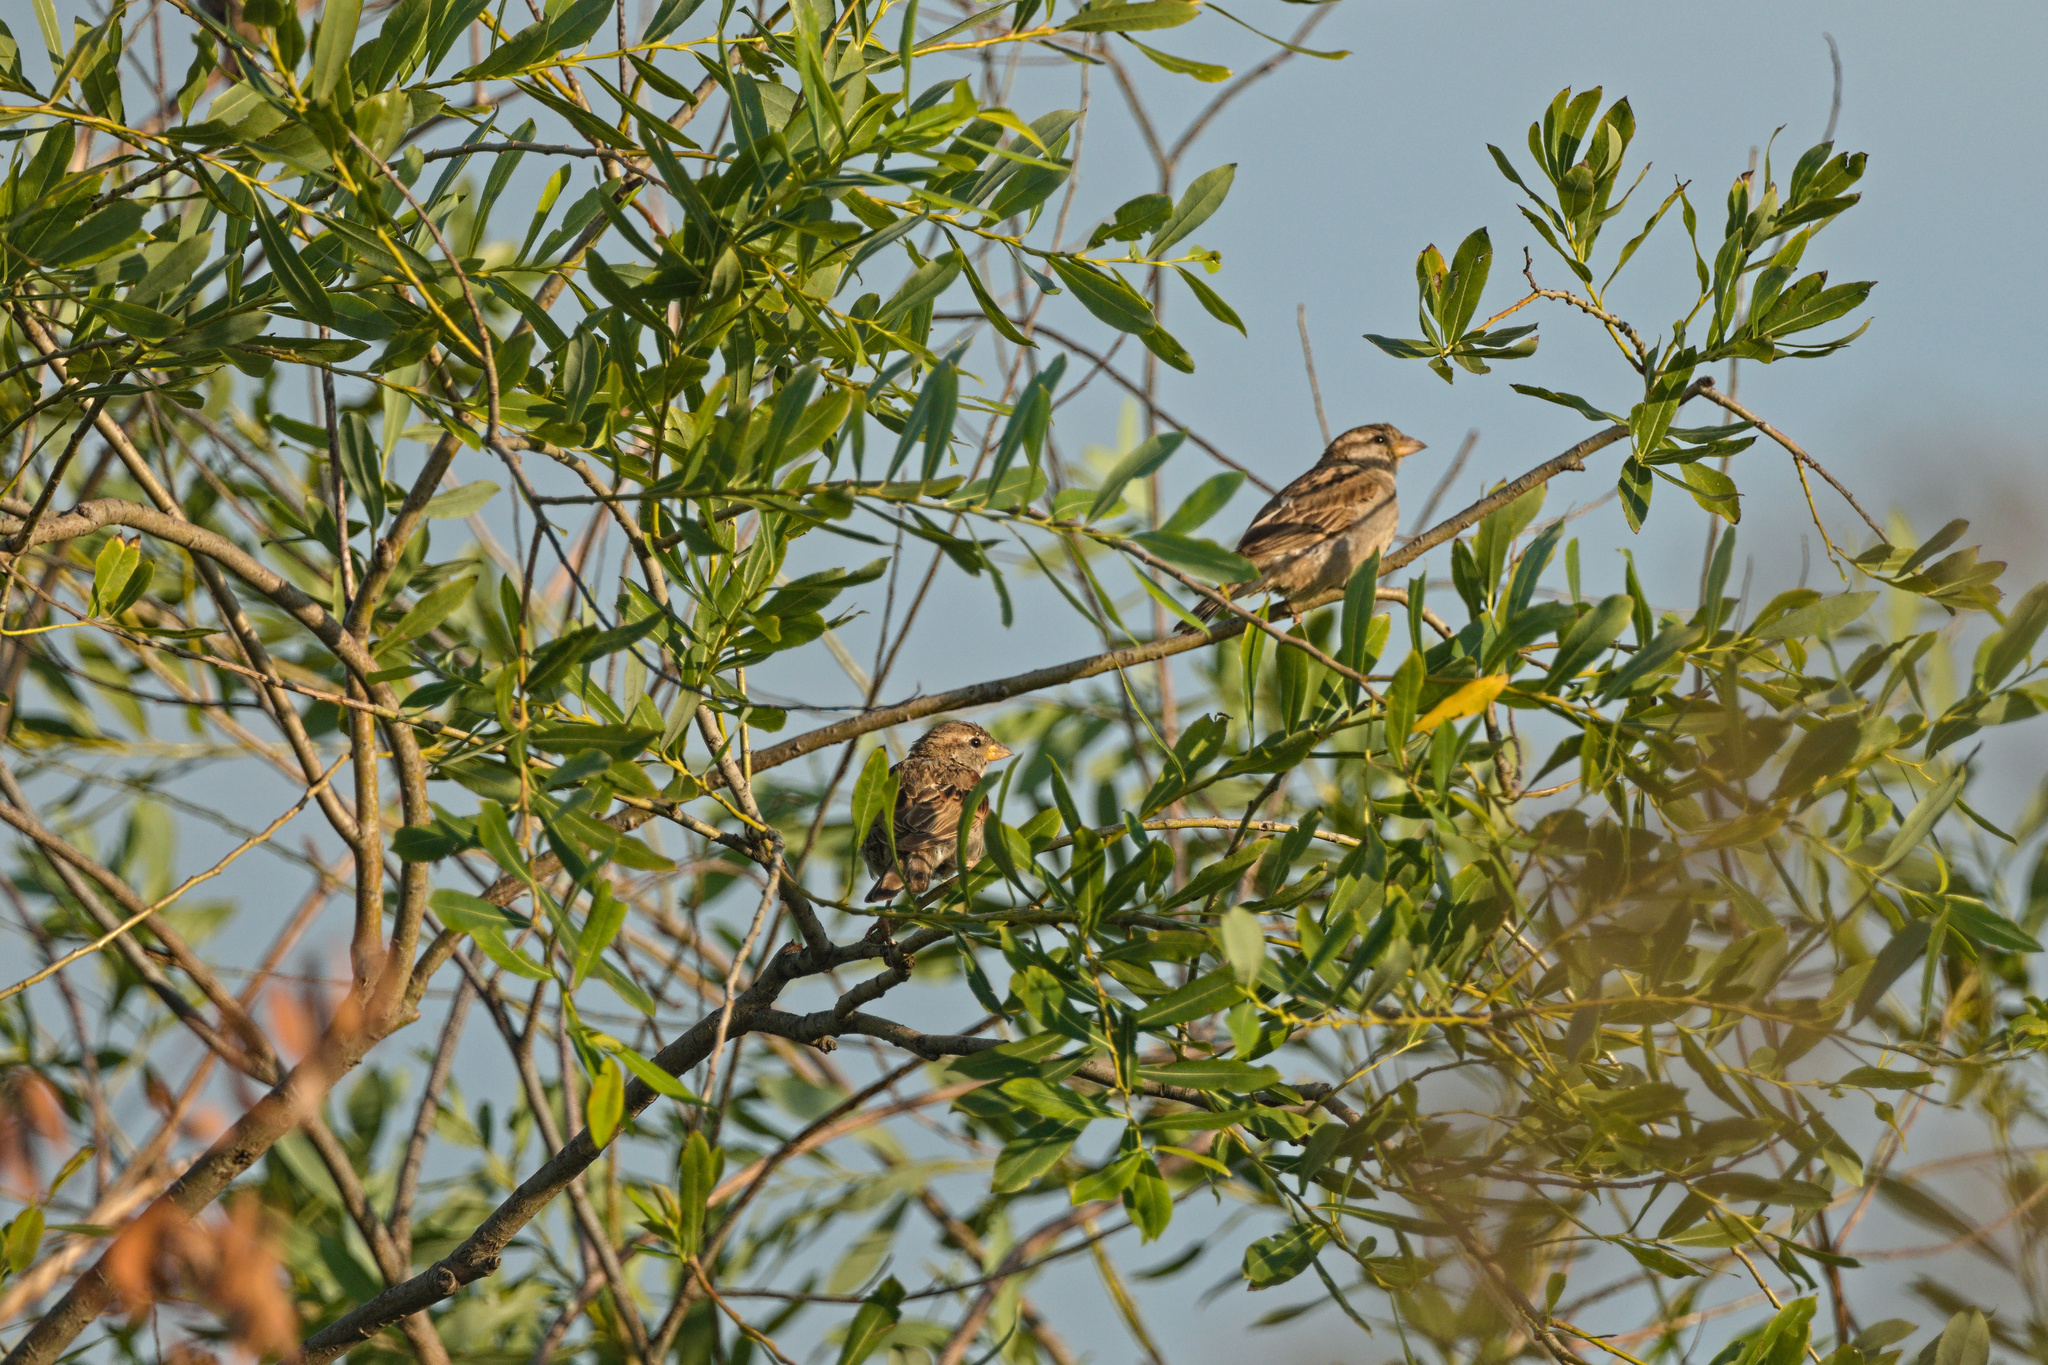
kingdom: Animalia
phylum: Chordata
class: Aves
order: Passeriformes
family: Passeridae
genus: Passer
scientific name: Passer domesticus
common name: House sparrow
